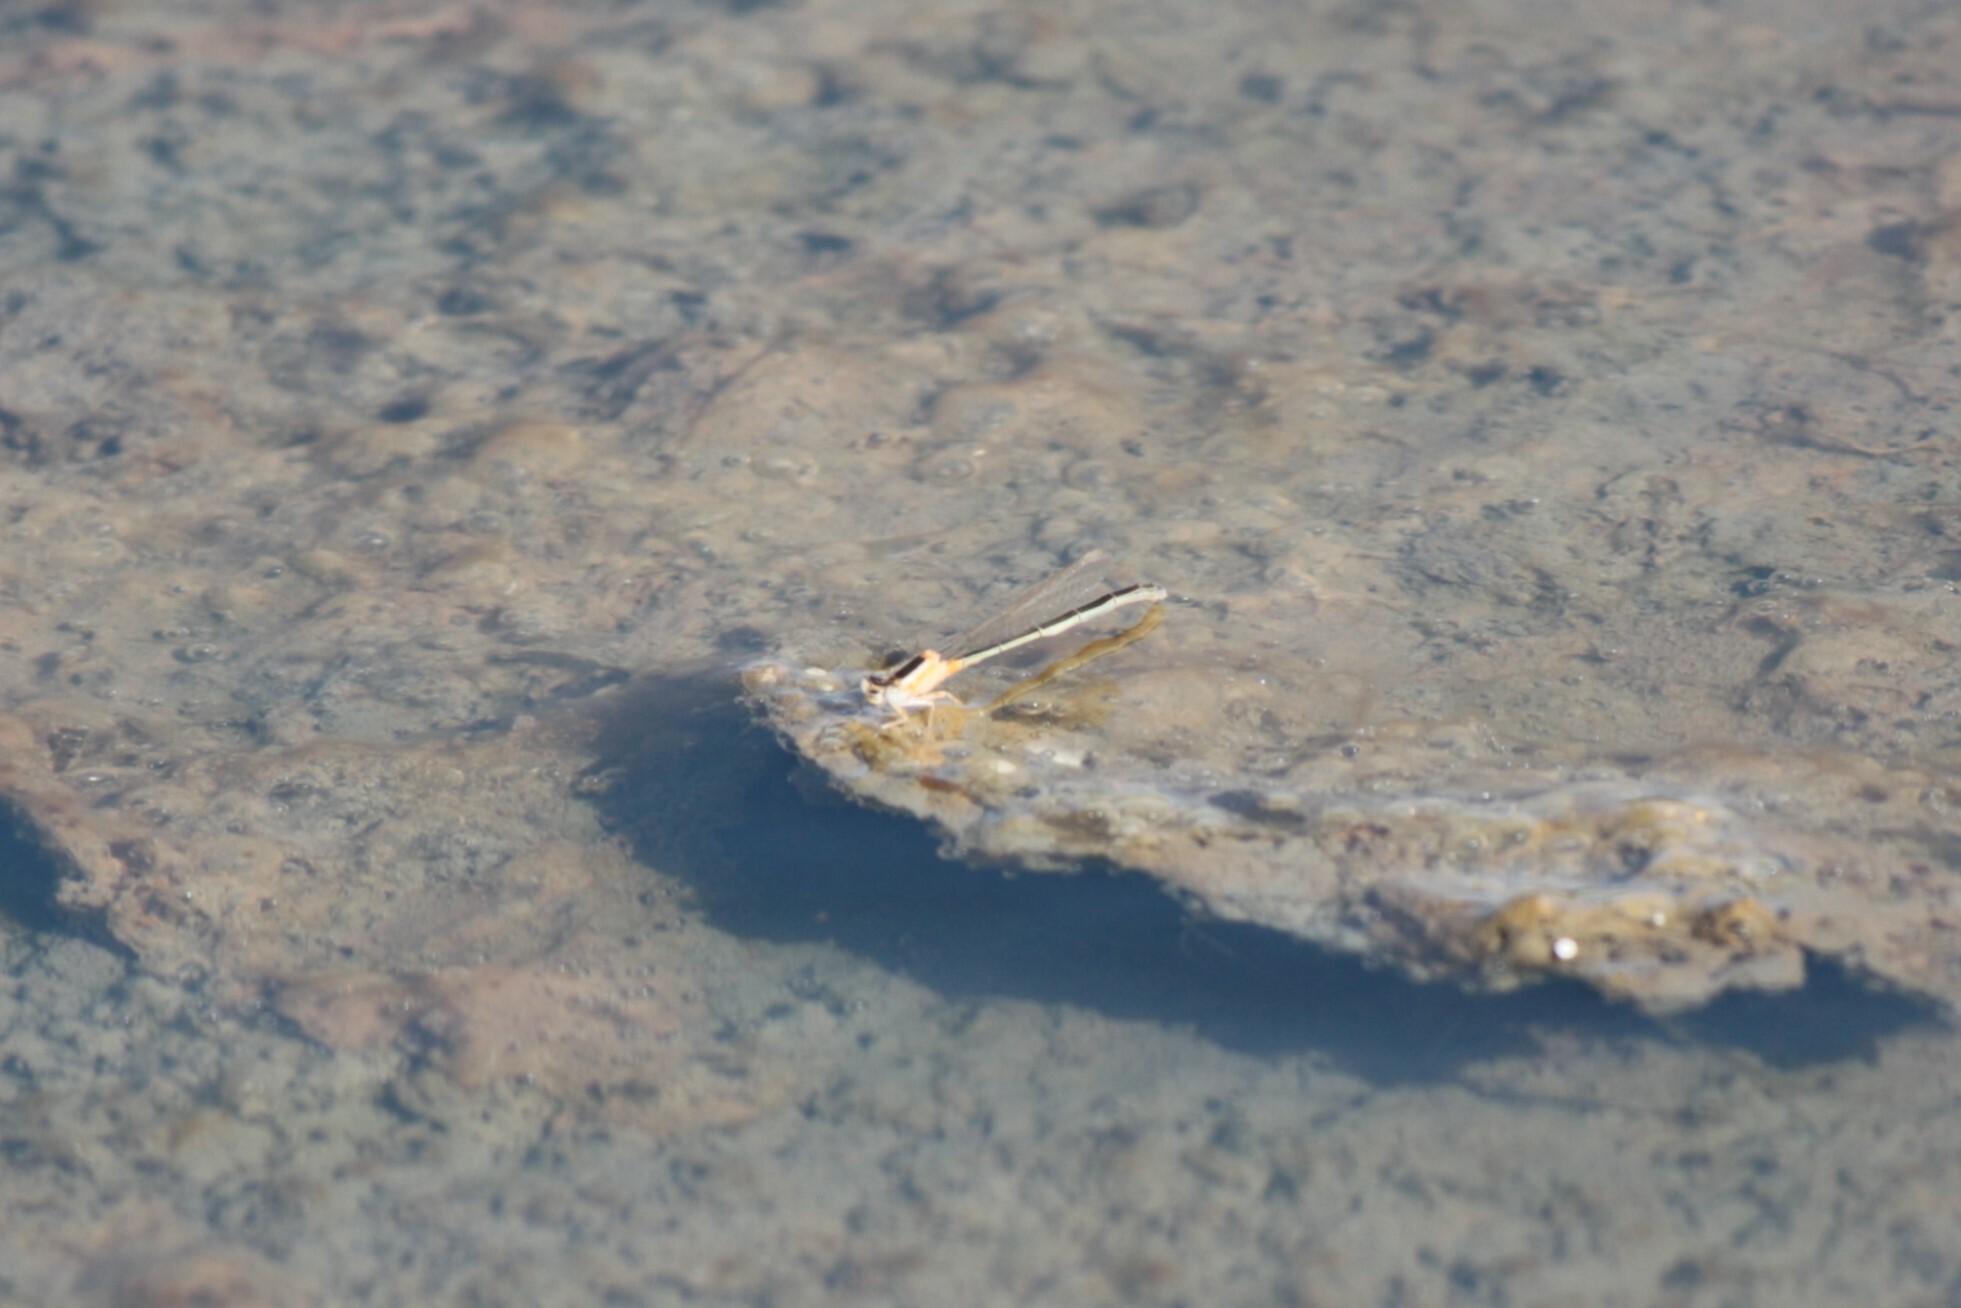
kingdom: Animalia
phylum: Arthropoda
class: Insecta
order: Odonata
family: Coenagrionidae
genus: Ischnura
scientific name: Ischnura senegalensis
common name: Tropical bluetail
